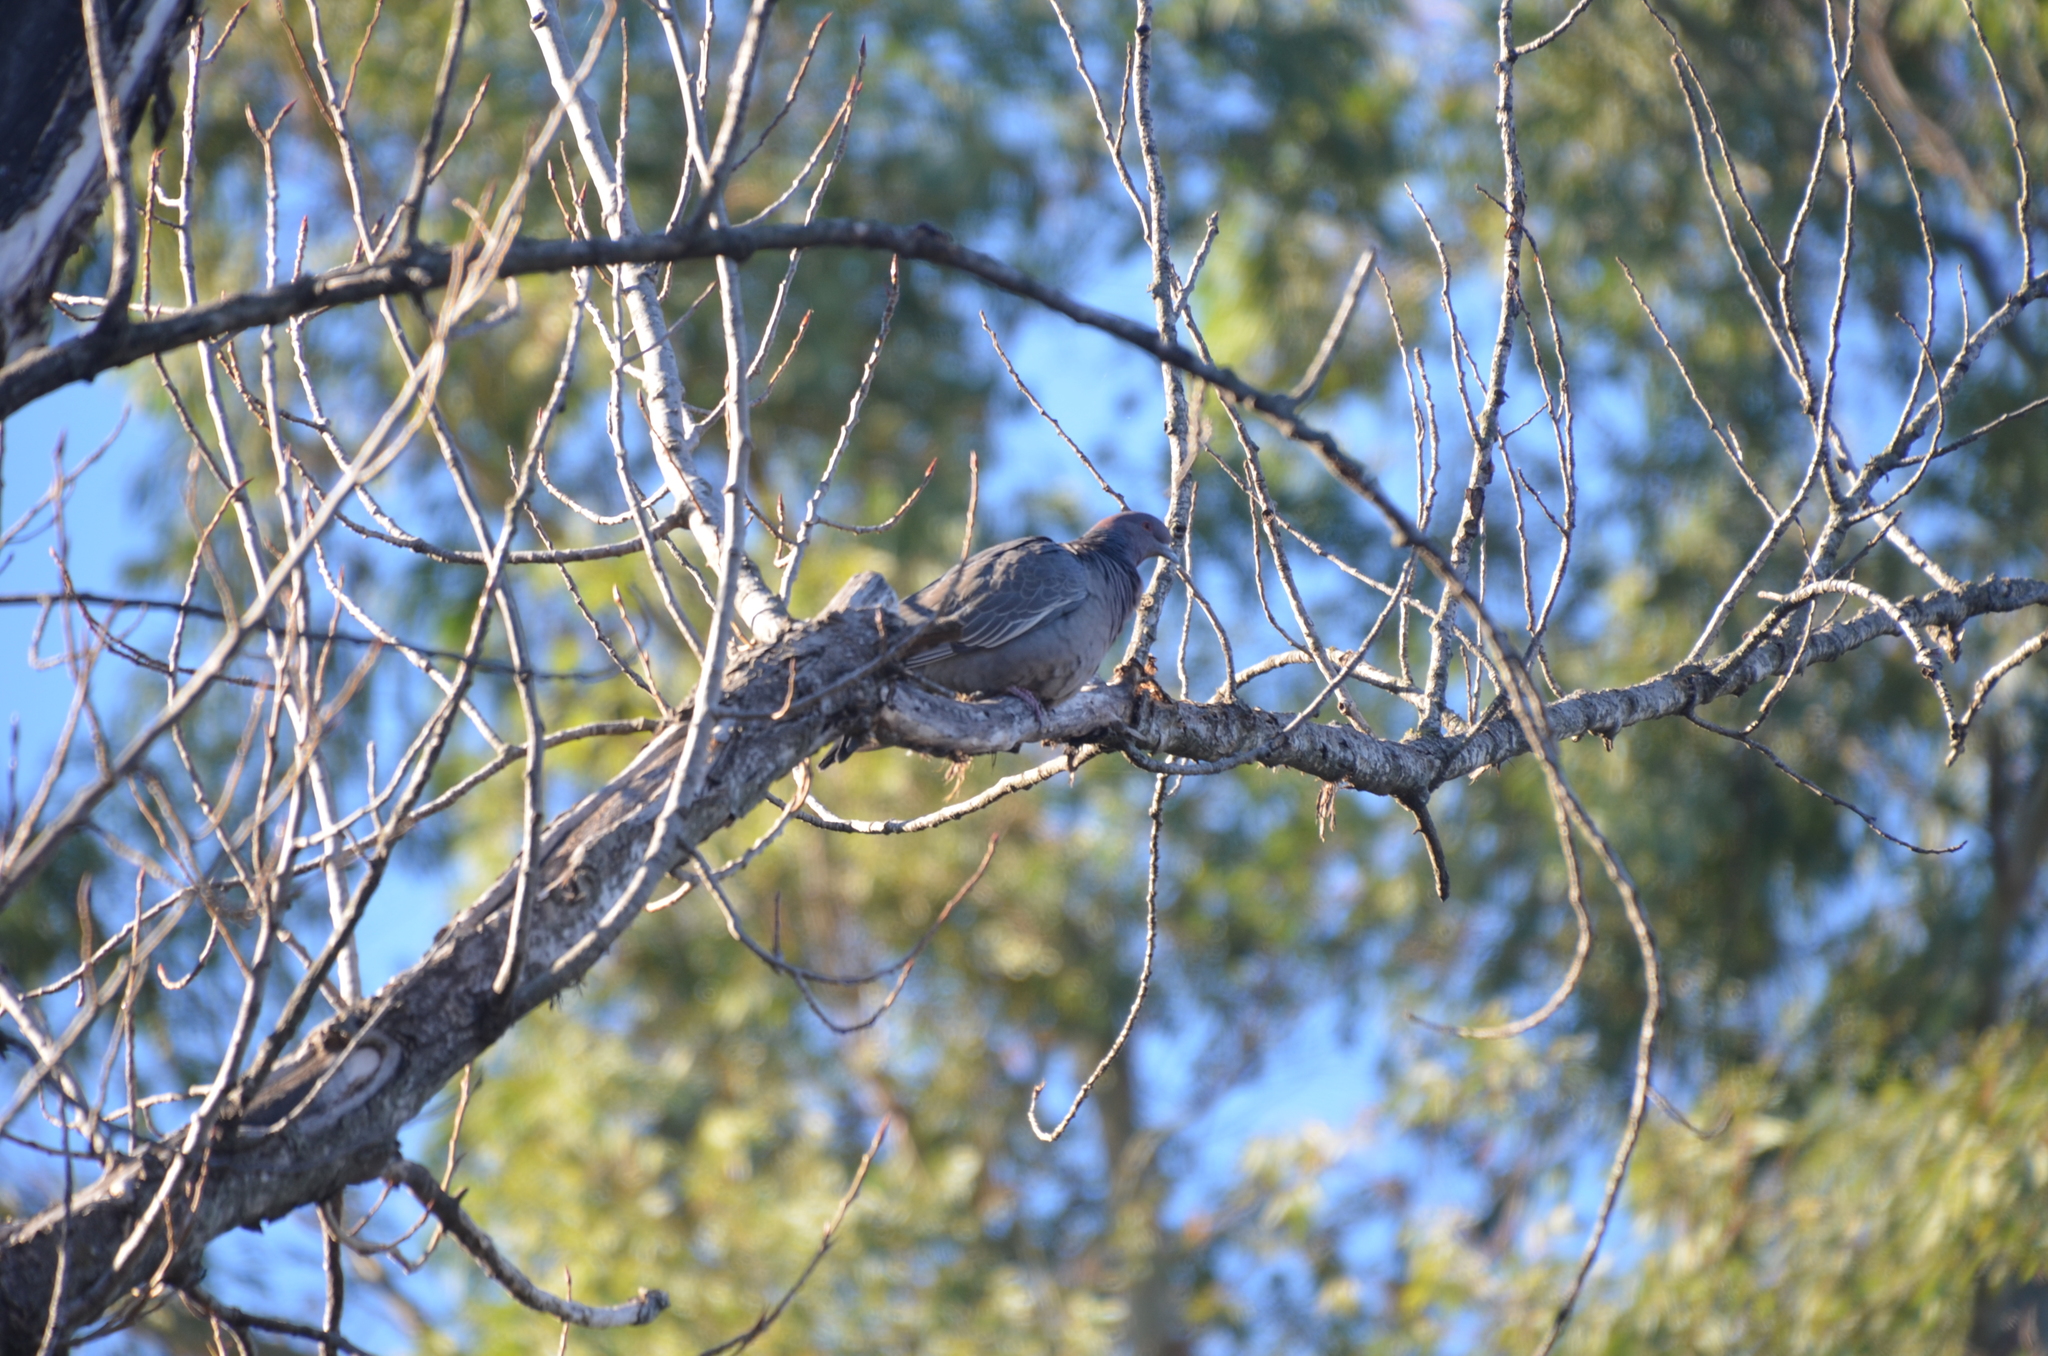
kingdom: Animalia
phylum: Chordata
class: Aves
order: Columbiformes
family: Columbidae
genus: Patagioenas
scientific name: Patagioenas picazuro
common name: Picazuro pigeon
